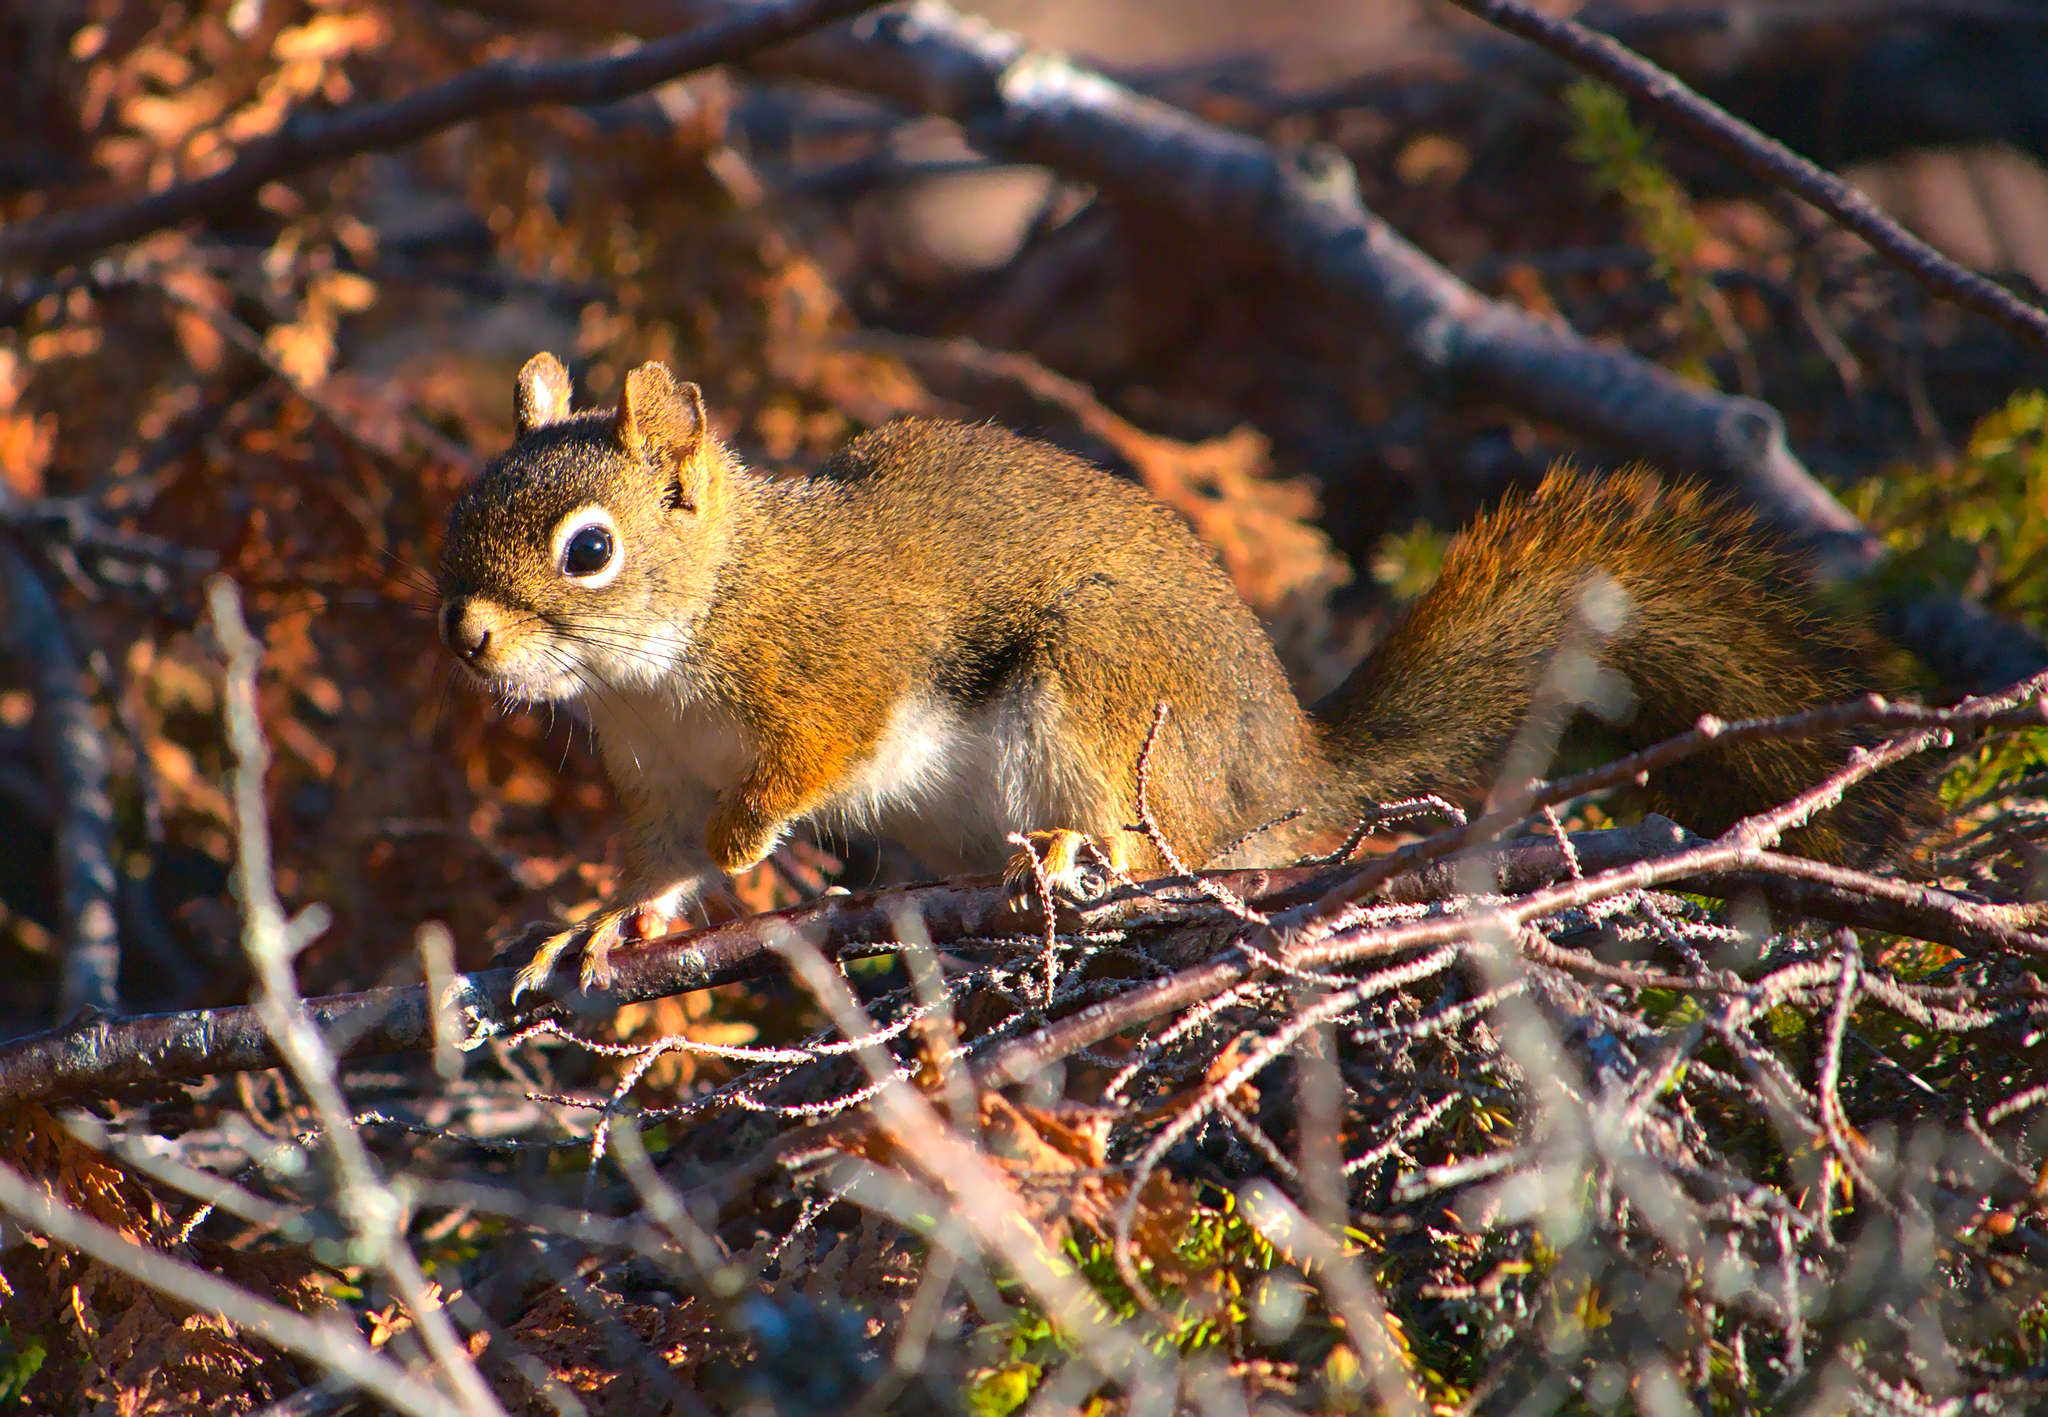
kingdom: Animalia
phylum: Chordata
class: Mammalia
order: Rodentia
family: Sciuridae
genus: Tamiasciurus
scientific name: Tamiasciurus hudsonicus
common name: Red squirrel
